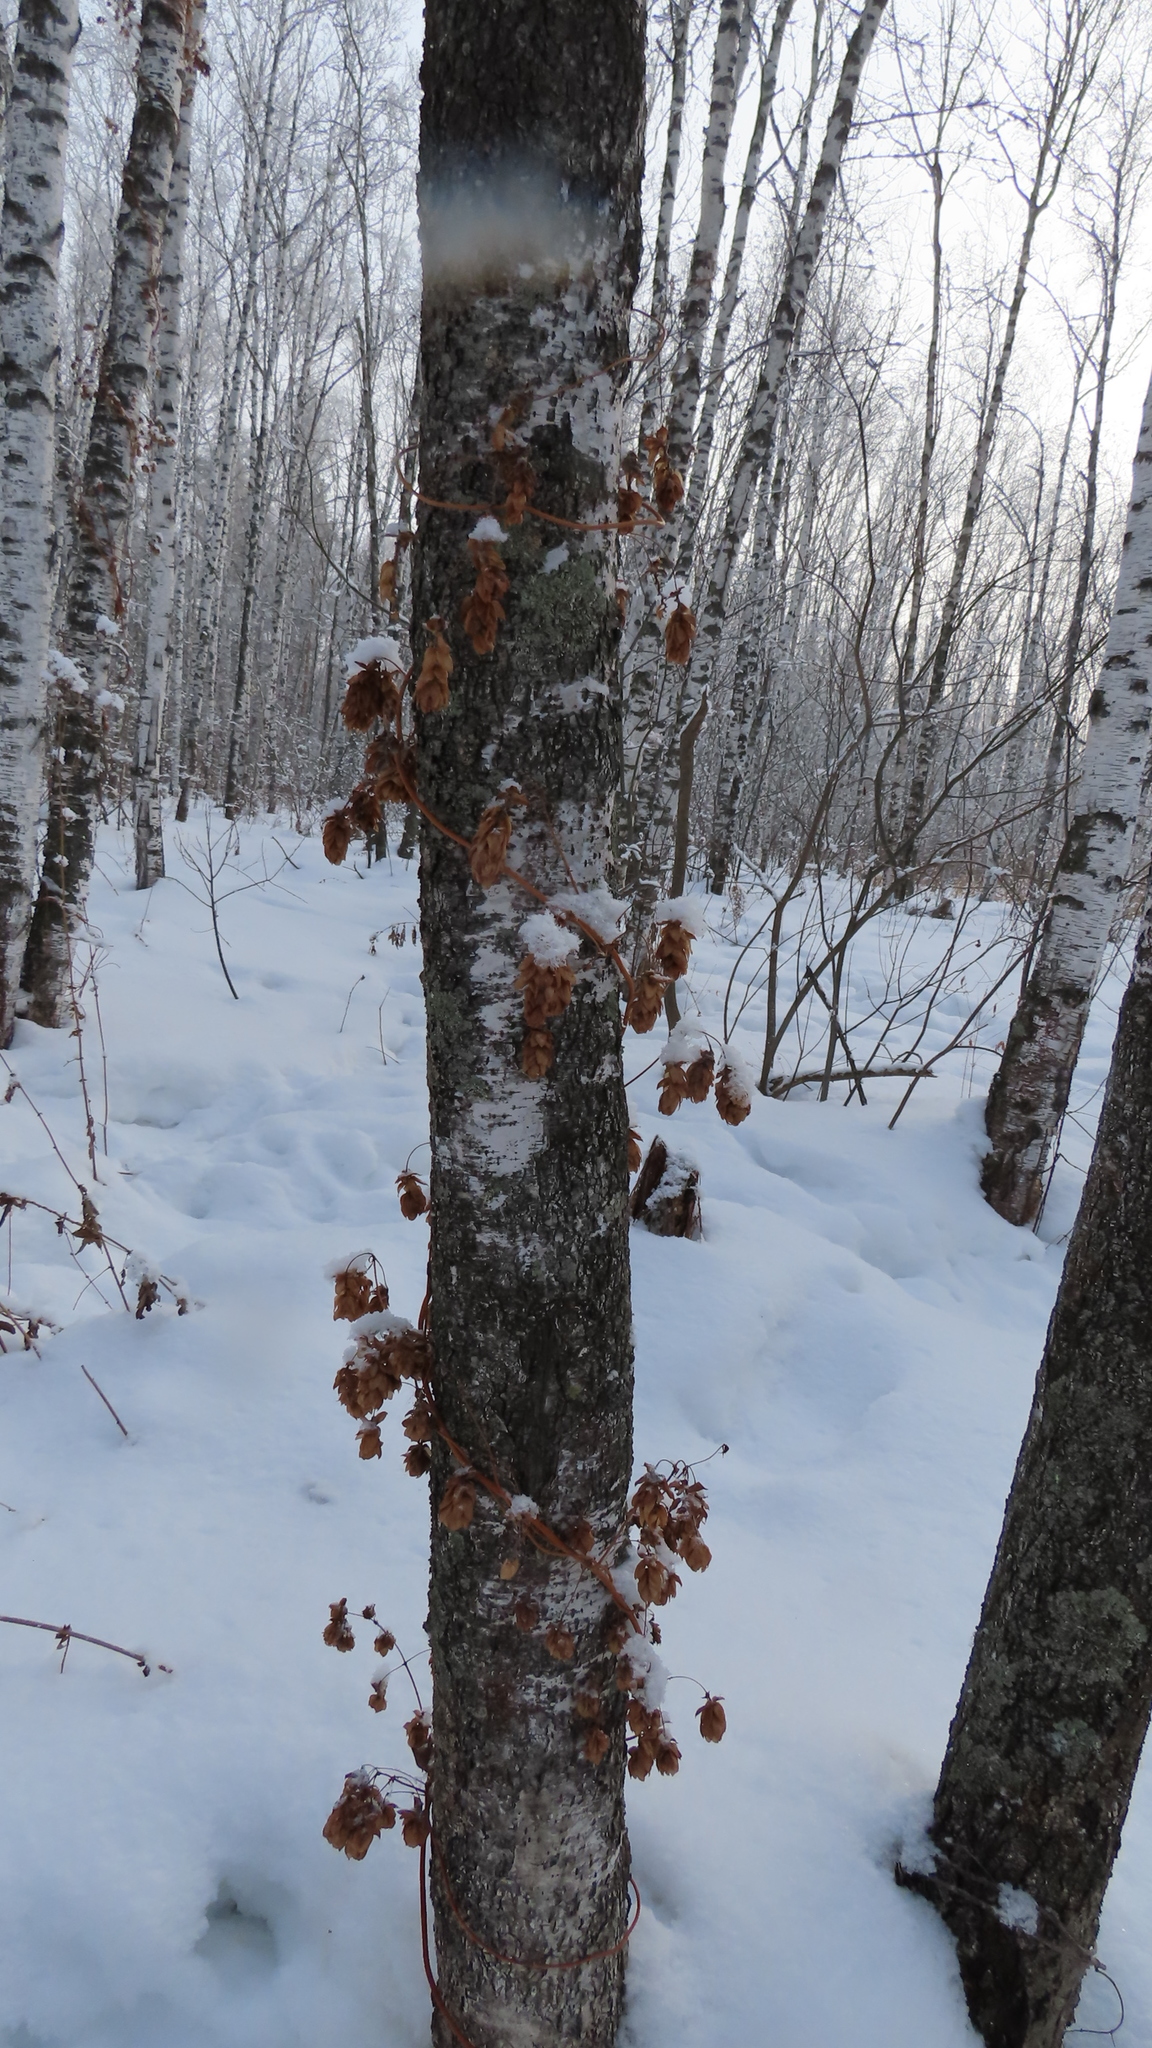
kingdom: Plantae
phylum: Tracheophyta
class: Magnoliopsida
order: Rosales
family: Cannabaceae
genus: Humulus
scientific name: Humulus lupulus
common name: Hop
